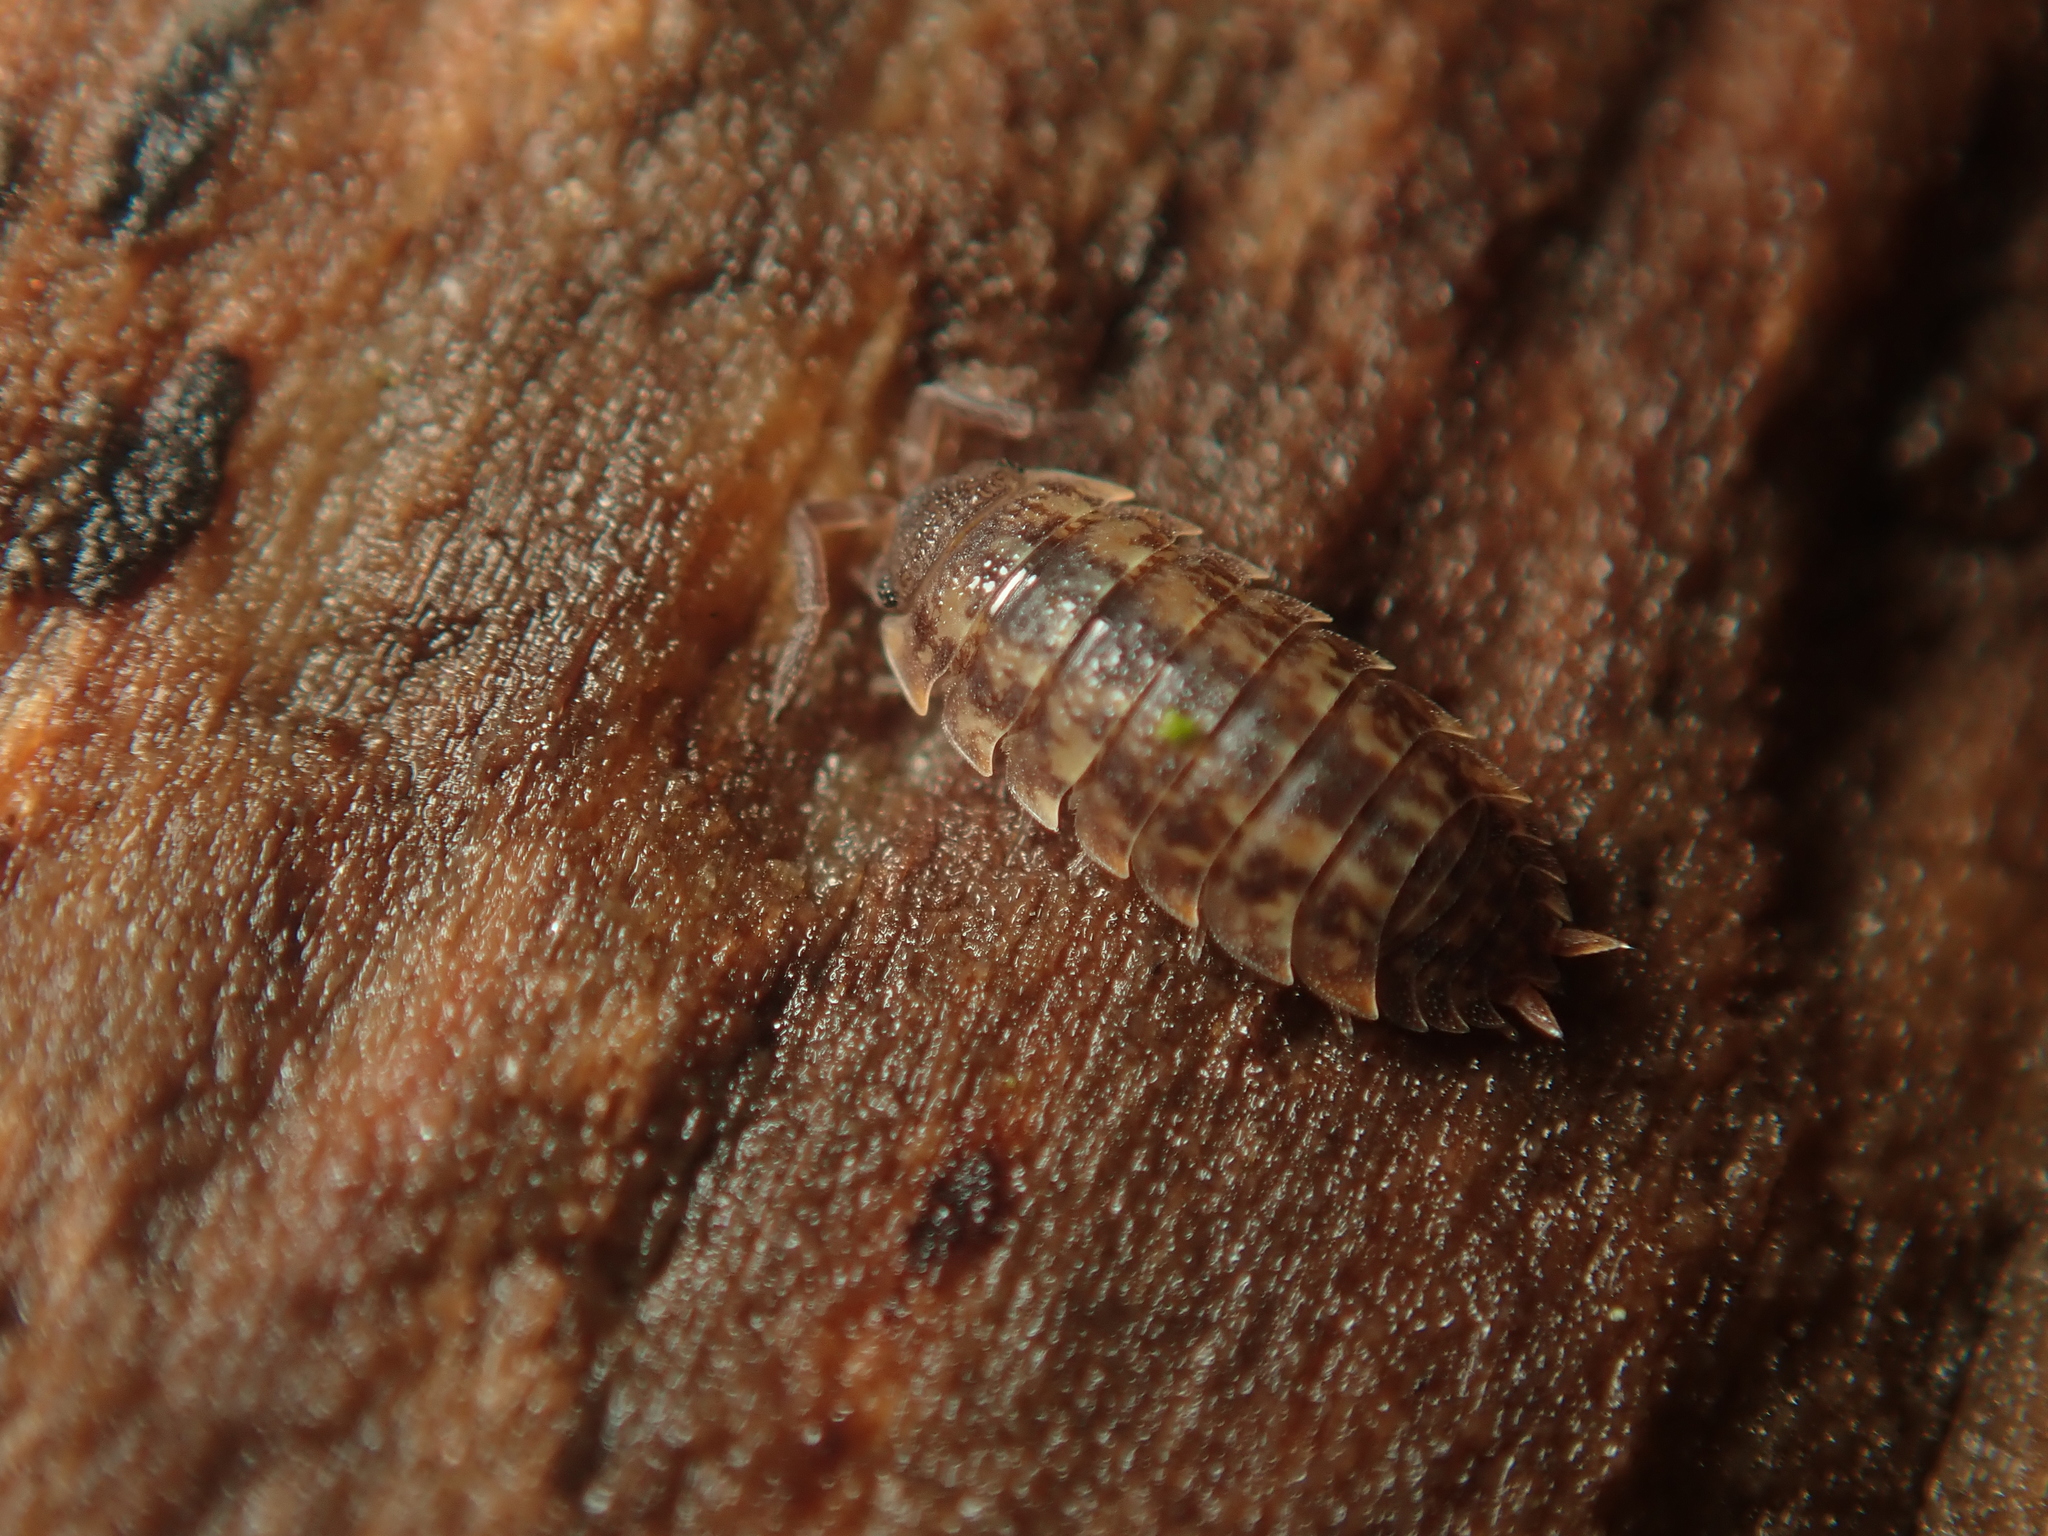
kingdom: Animalia
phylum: Arthropoda
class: Malacostraca
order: Isopoda
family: Trachelipodidae
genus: Porcellium
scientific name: Porcellium collicola
